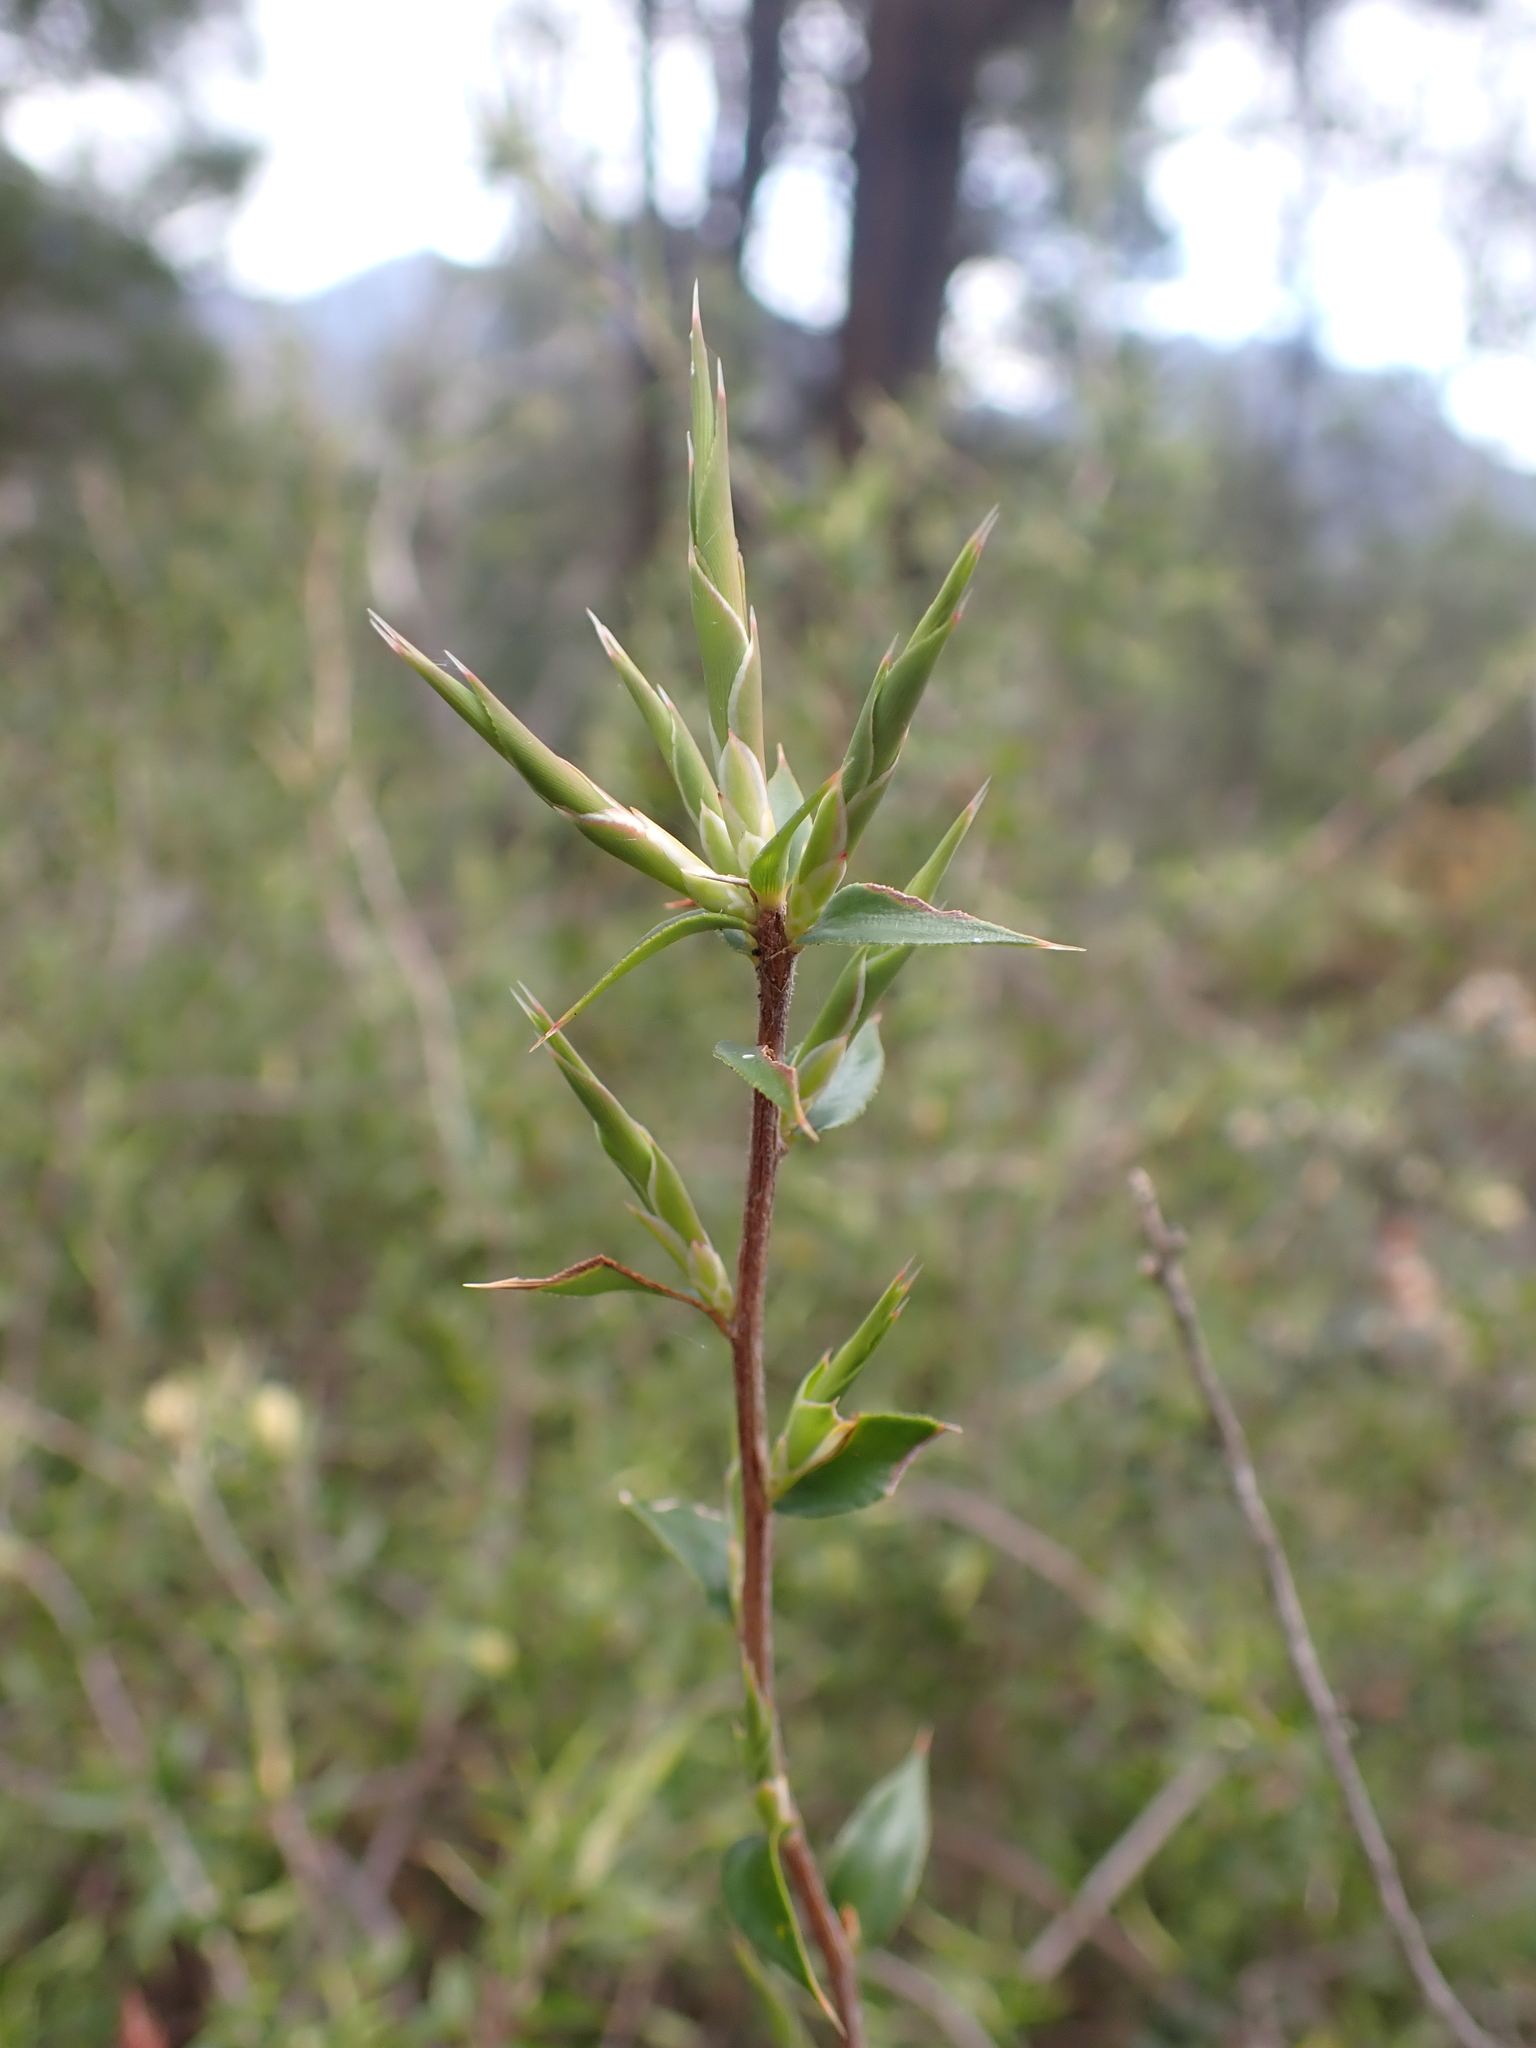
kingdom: Plantae
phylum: Tracheophyta
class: Magnoliopsida
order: Ericales
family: Ericaceae
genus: Styphelia
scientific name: Styphelia rufa
